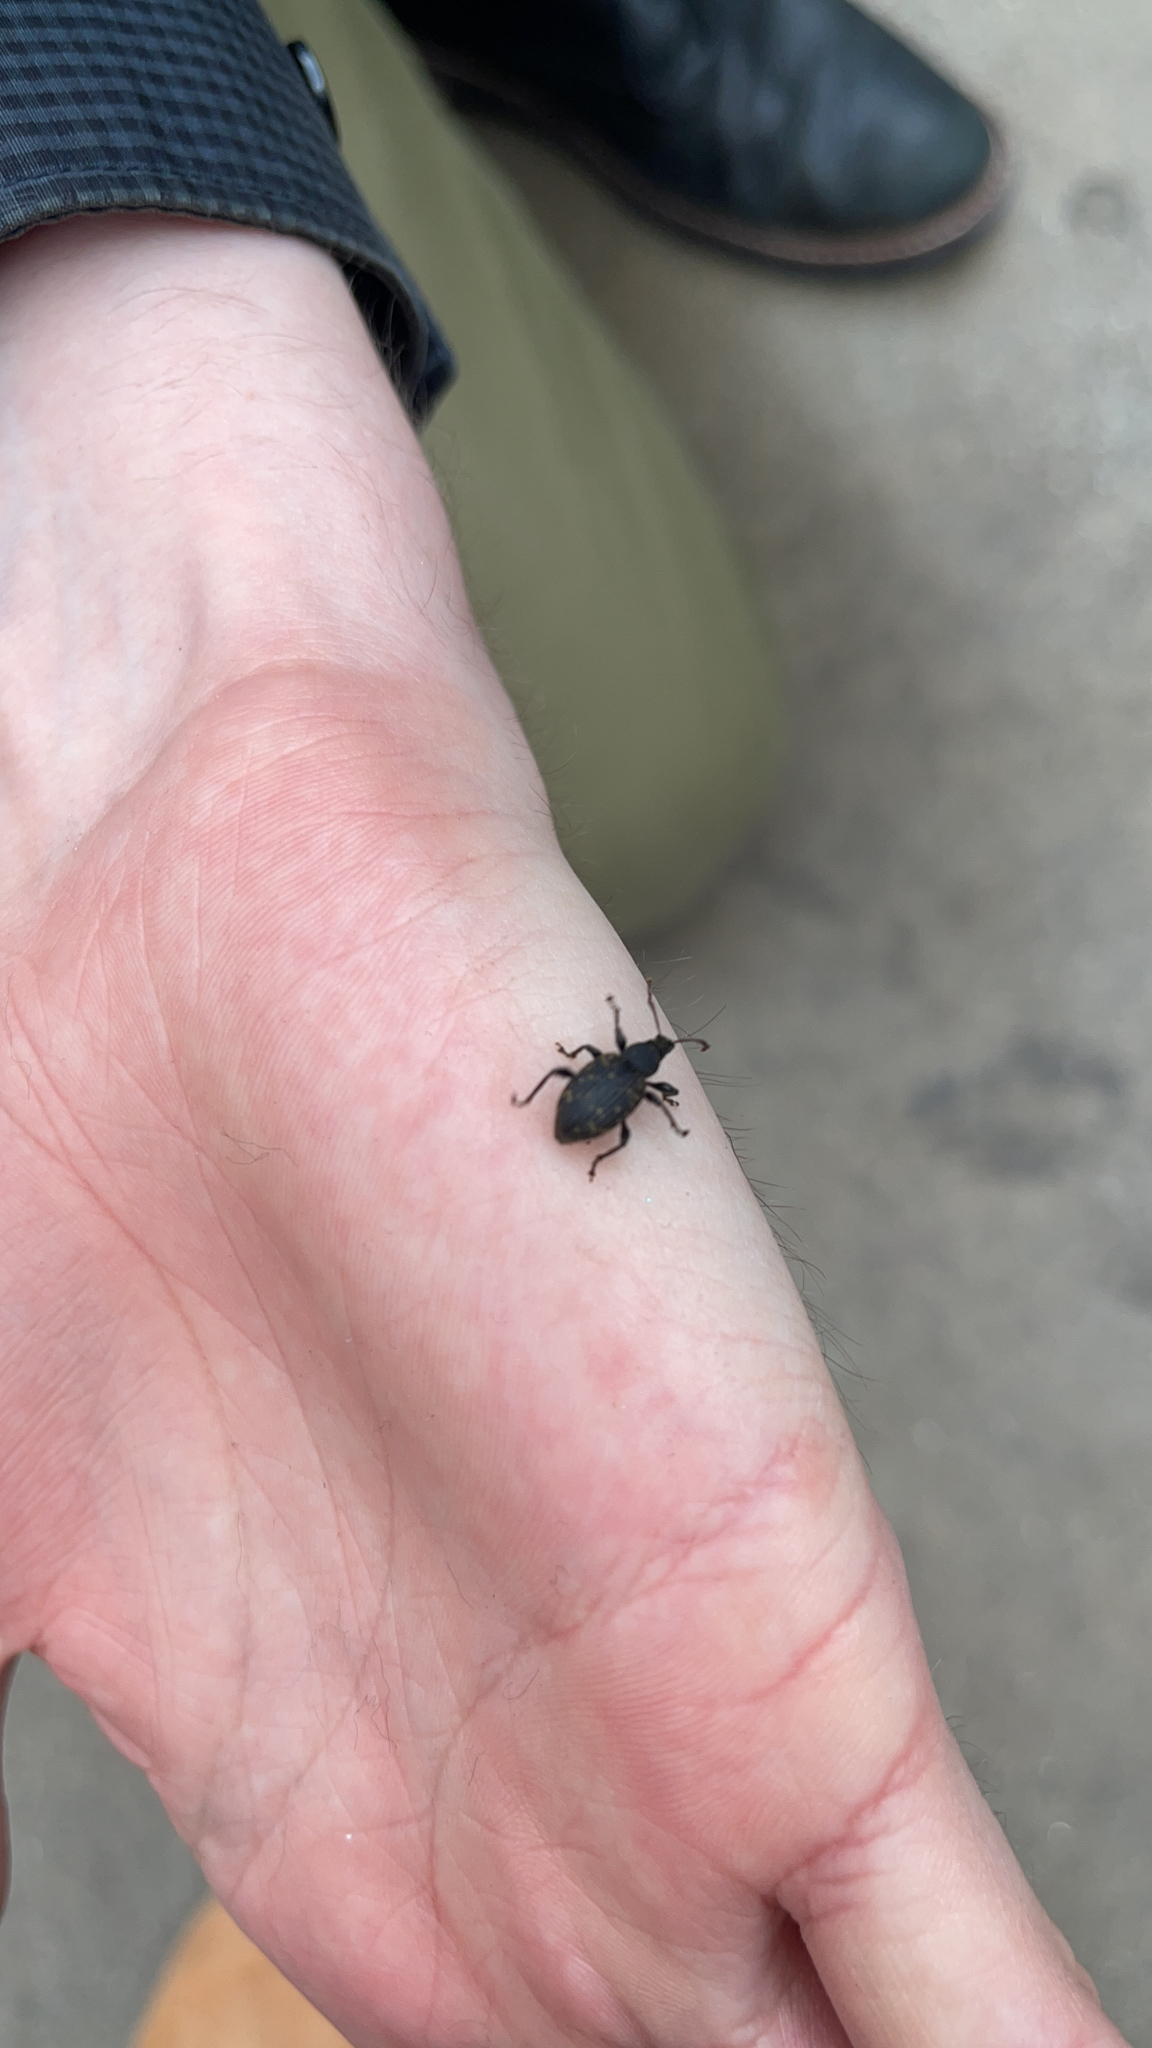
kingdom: Animalia
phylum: Arthropoda
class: Insecta
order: Coleoptera
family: Curculionidae
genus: Otiorhynchus
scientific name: Otiorhynchus sulcatus
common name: Black vine weevil
